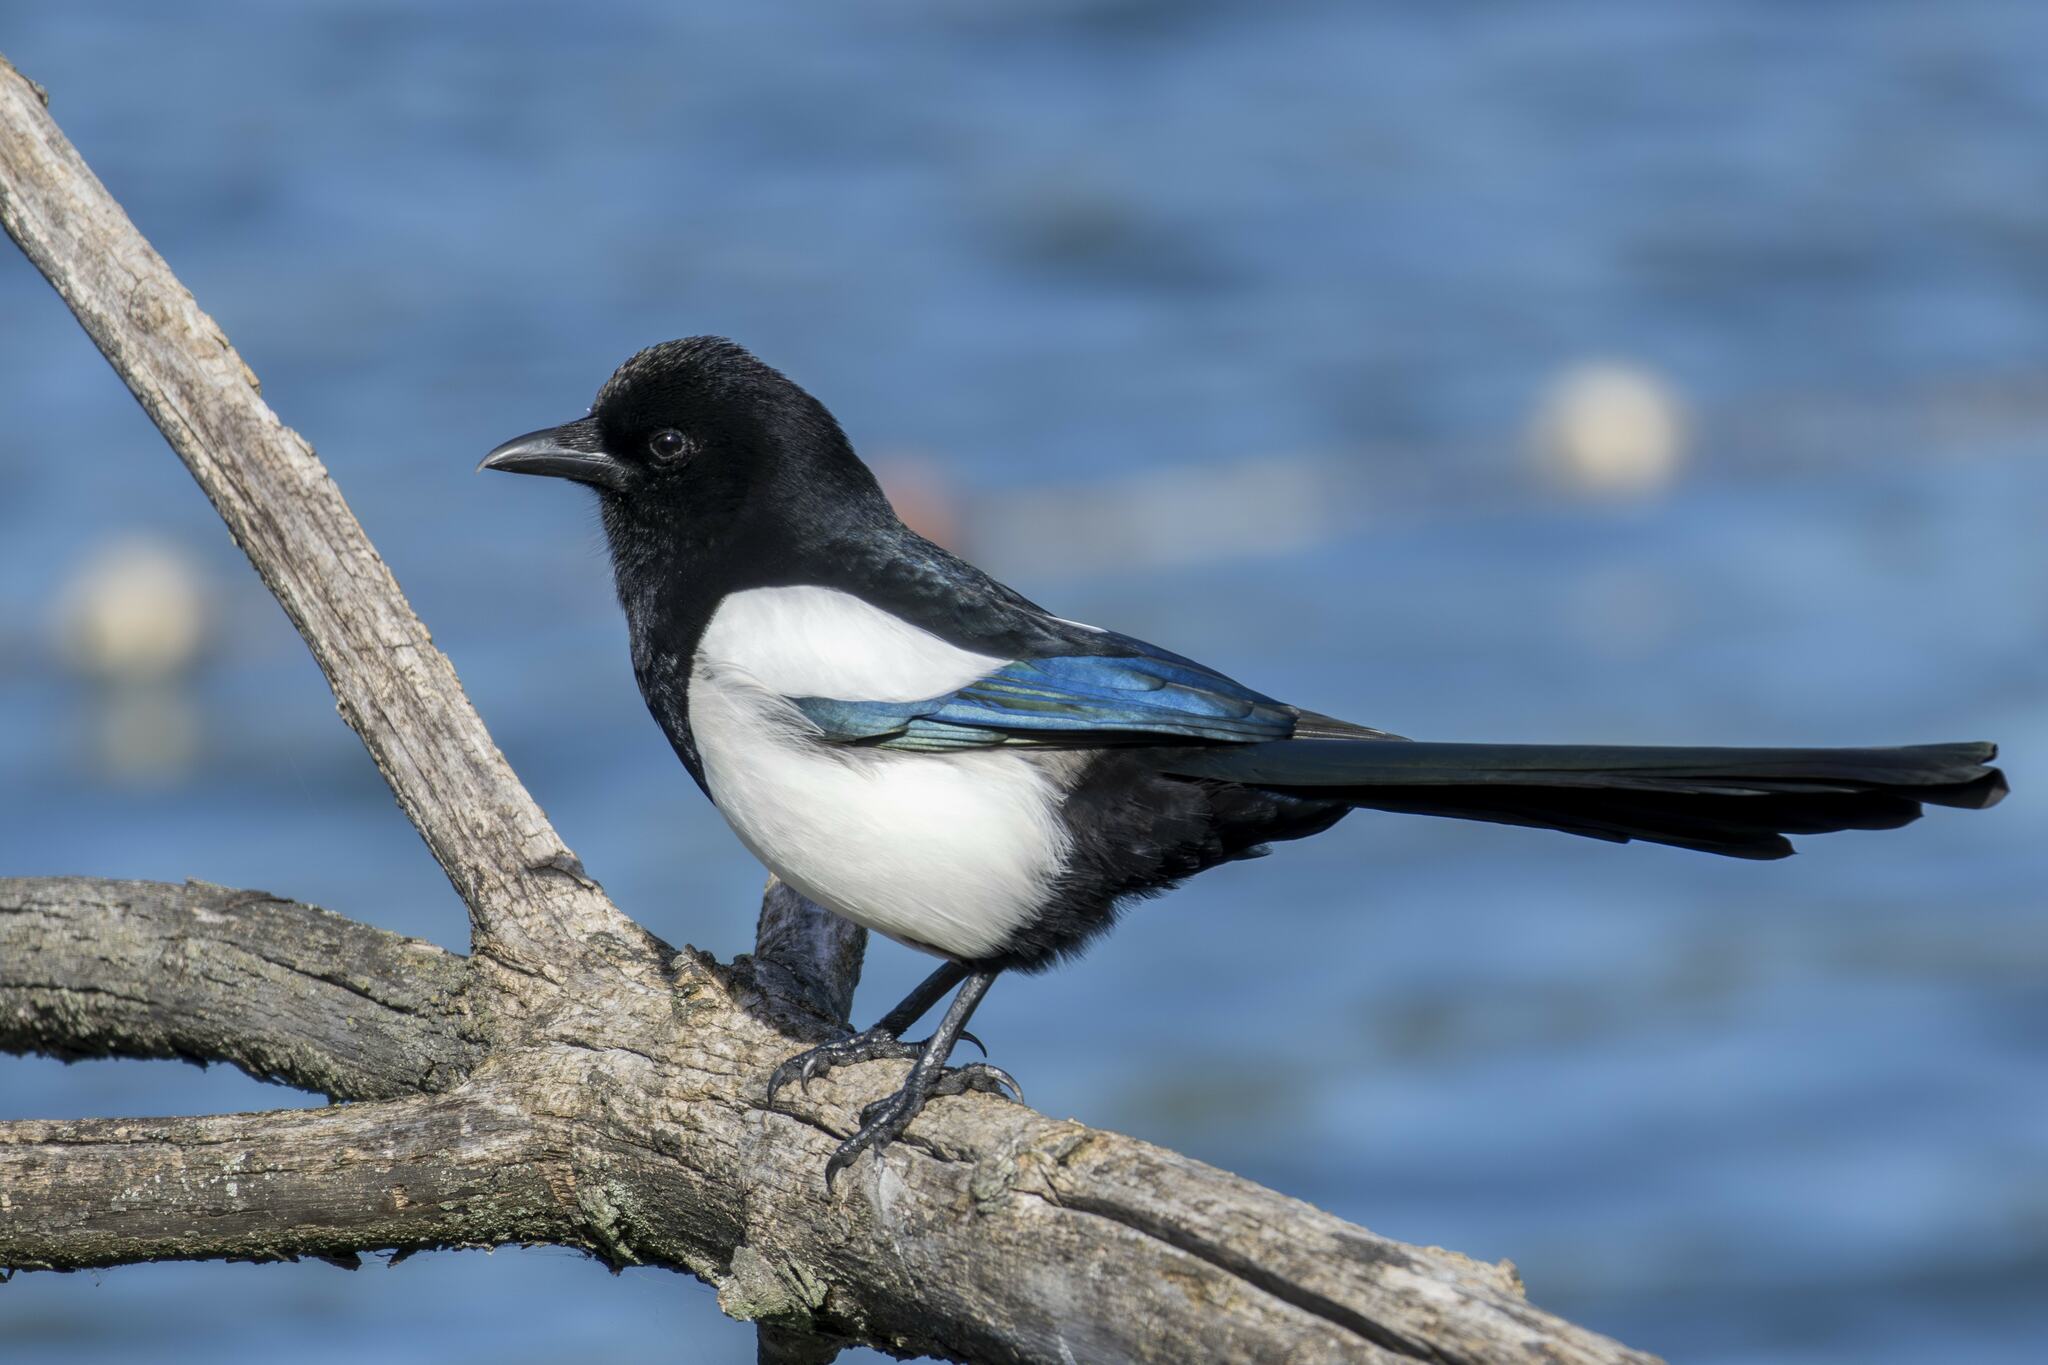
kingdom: Animalia
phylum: Chordata
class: Aves
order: Passeriformes
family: Corvidae
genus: Pica
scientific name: Pica pica
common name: Eurasian magpie
